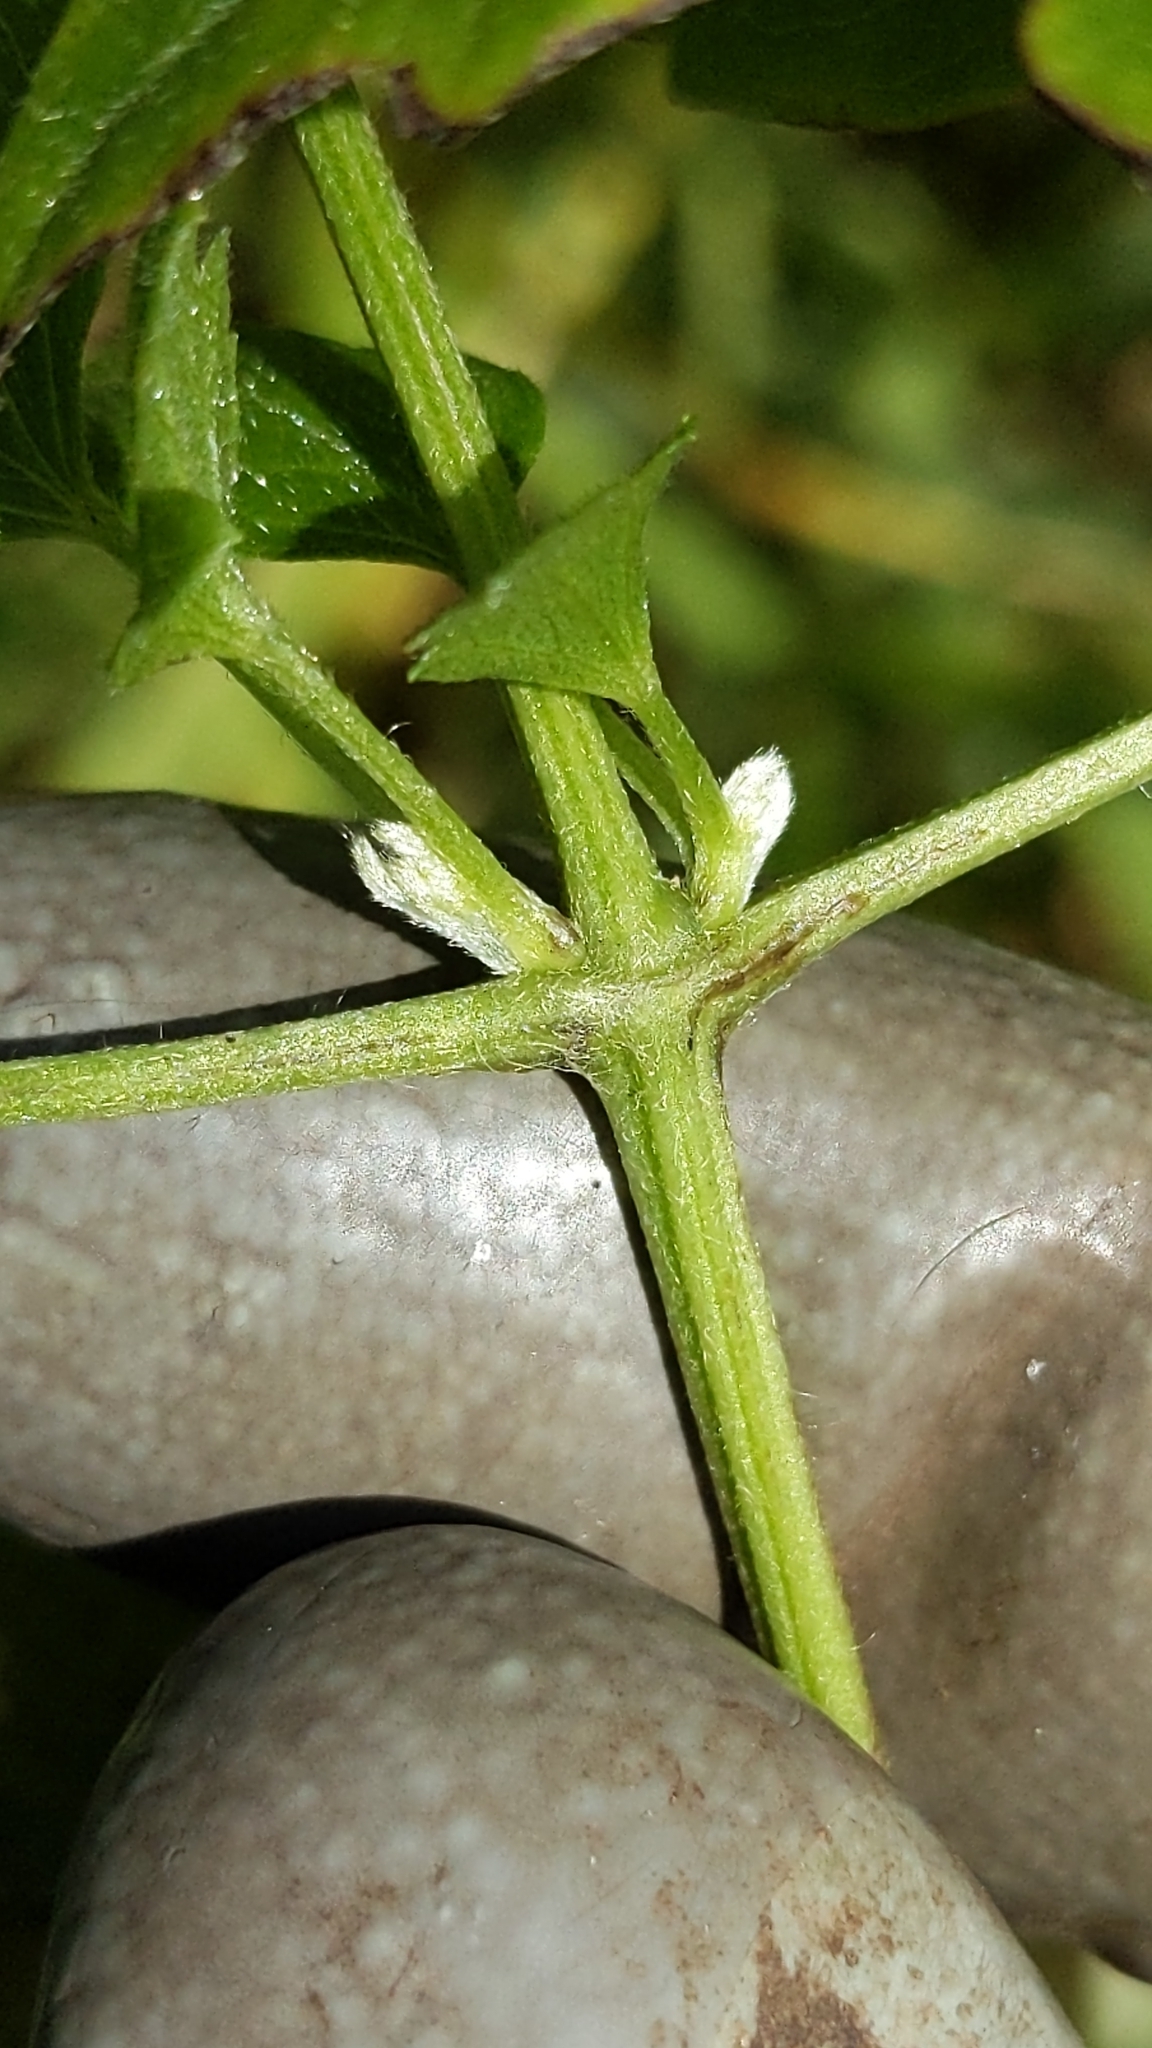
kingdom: Plantae
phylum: Tracheophyta
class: Magnoliopsida
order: Ranunculales
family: Ranunculaceae
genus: Clematis
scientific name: Clematis vitalba
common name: Evergreen clematis
